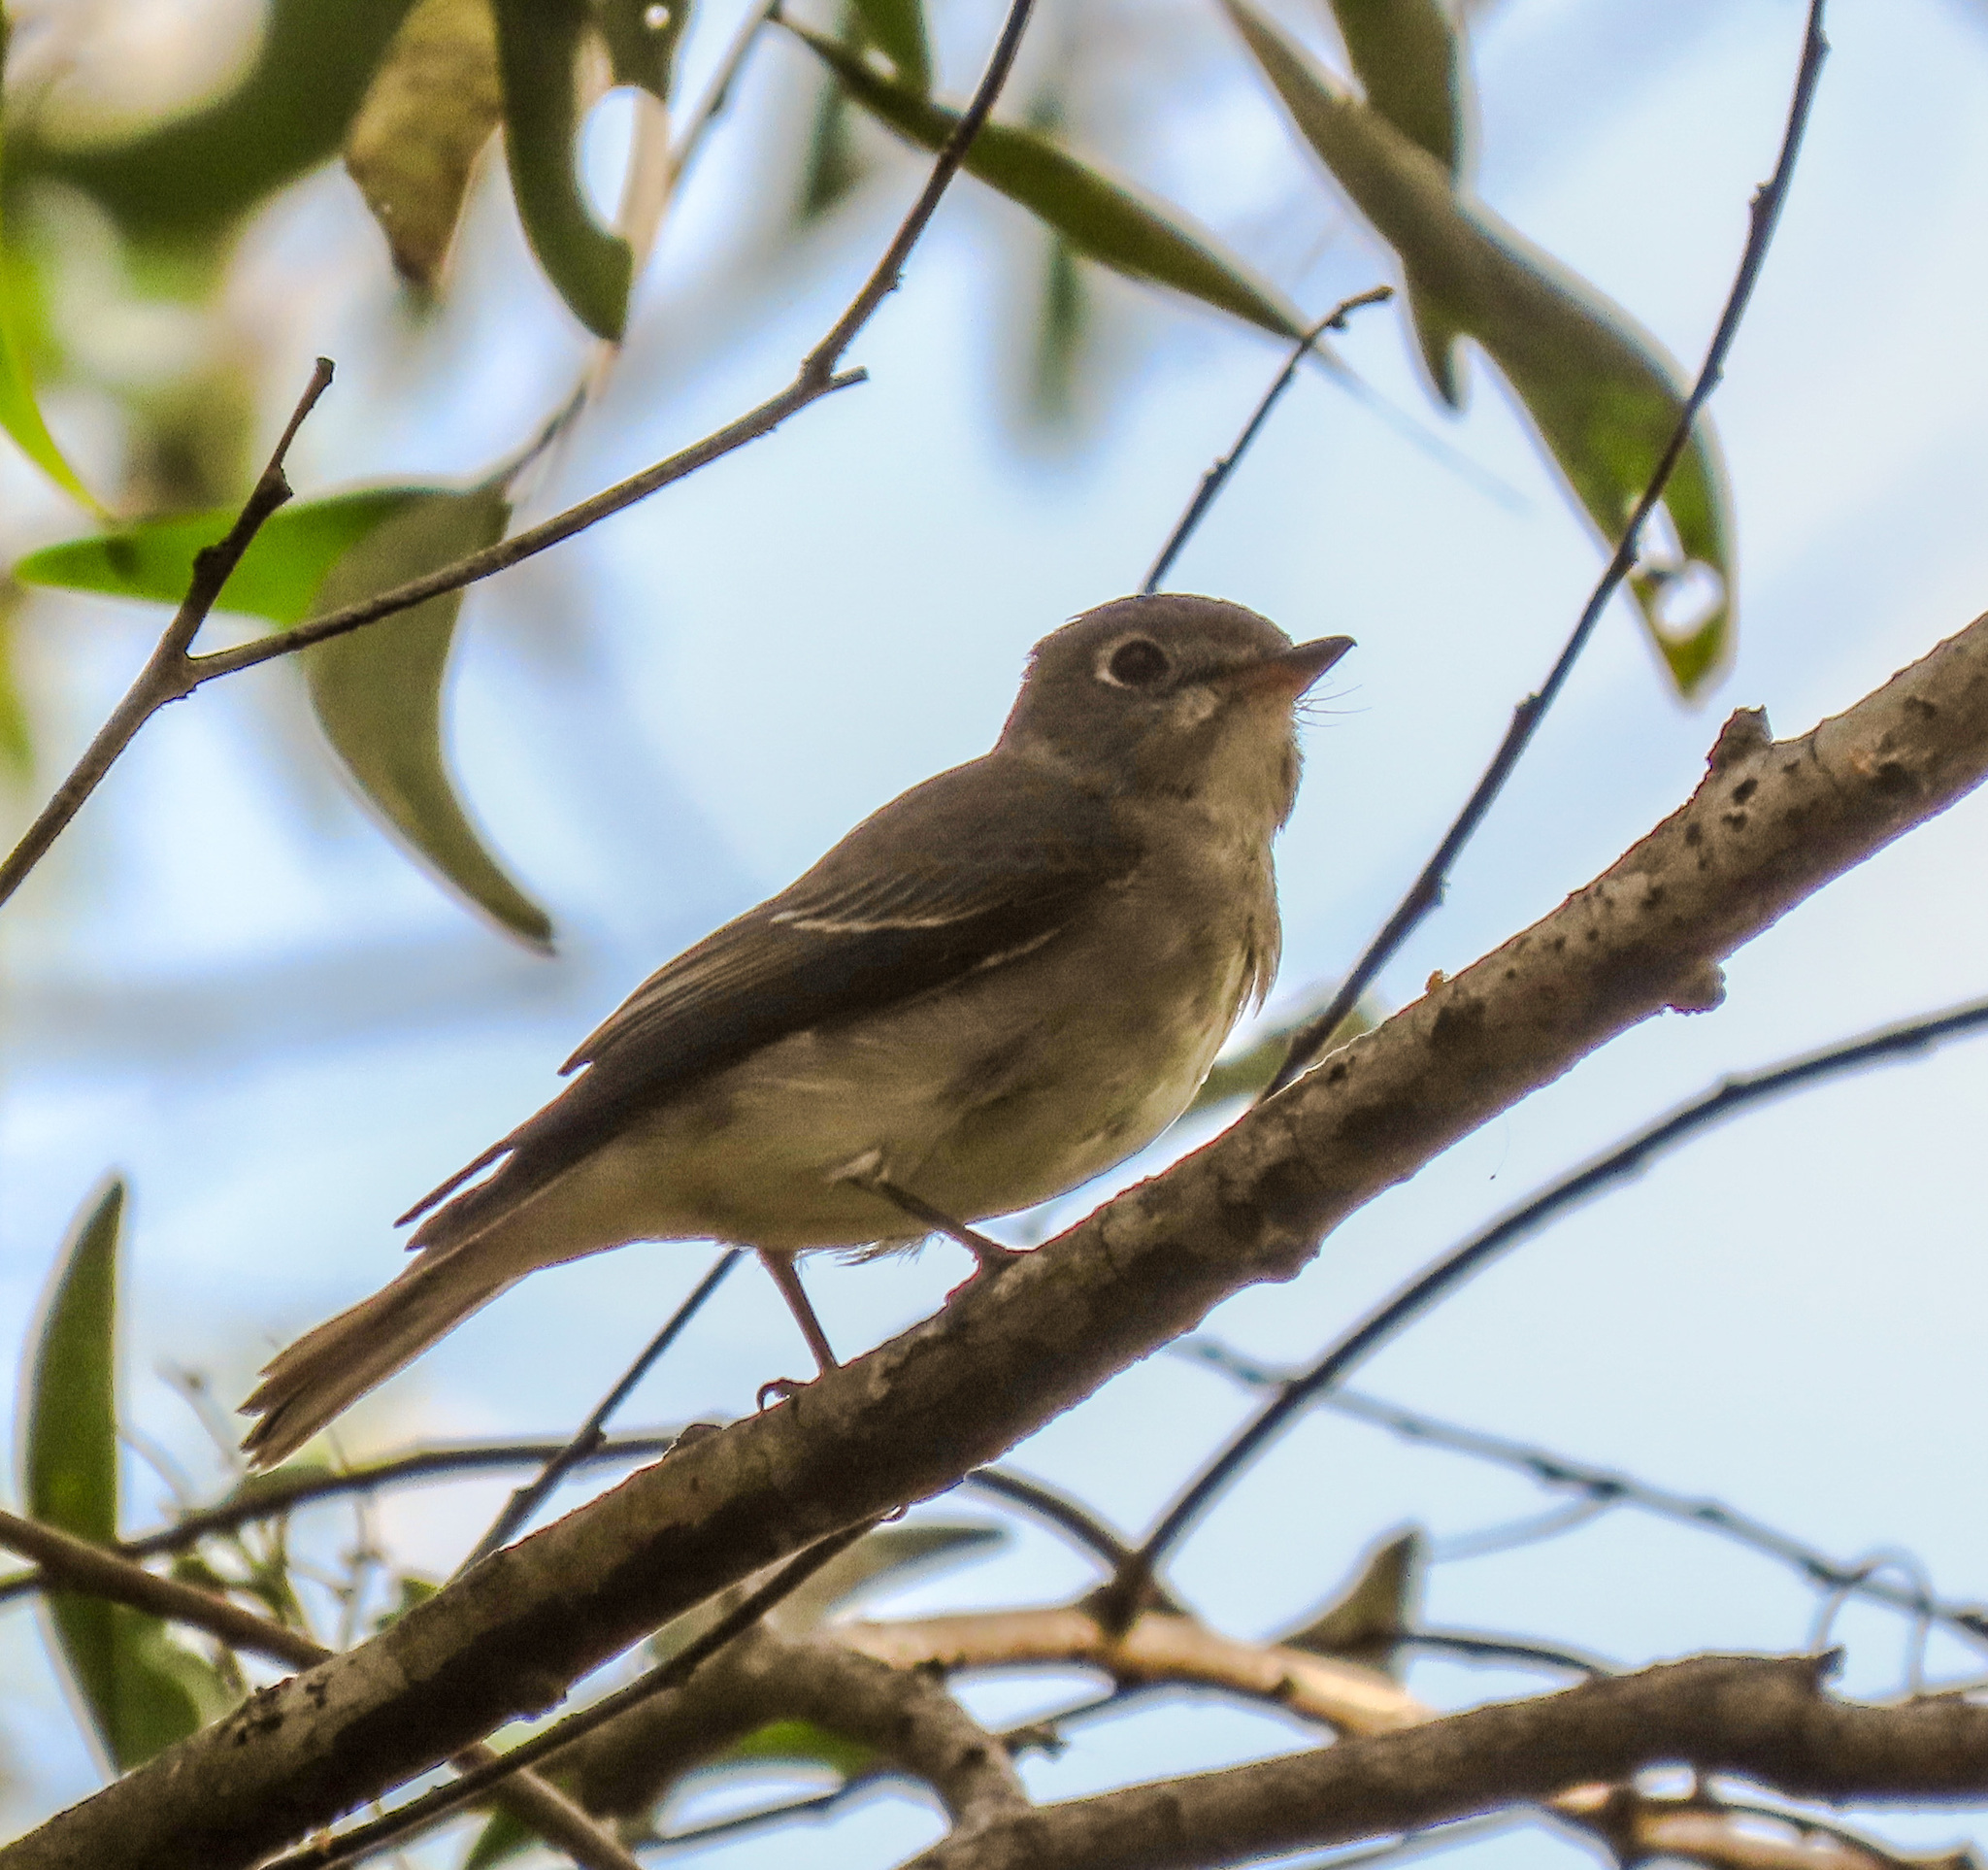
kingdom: Animalia
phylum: Chordata
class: Aves
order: Passeriformes
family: Muscicapidae
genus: Muscicapa
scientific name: Muscicapa sibirica
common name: Dark-sided flycatcher
